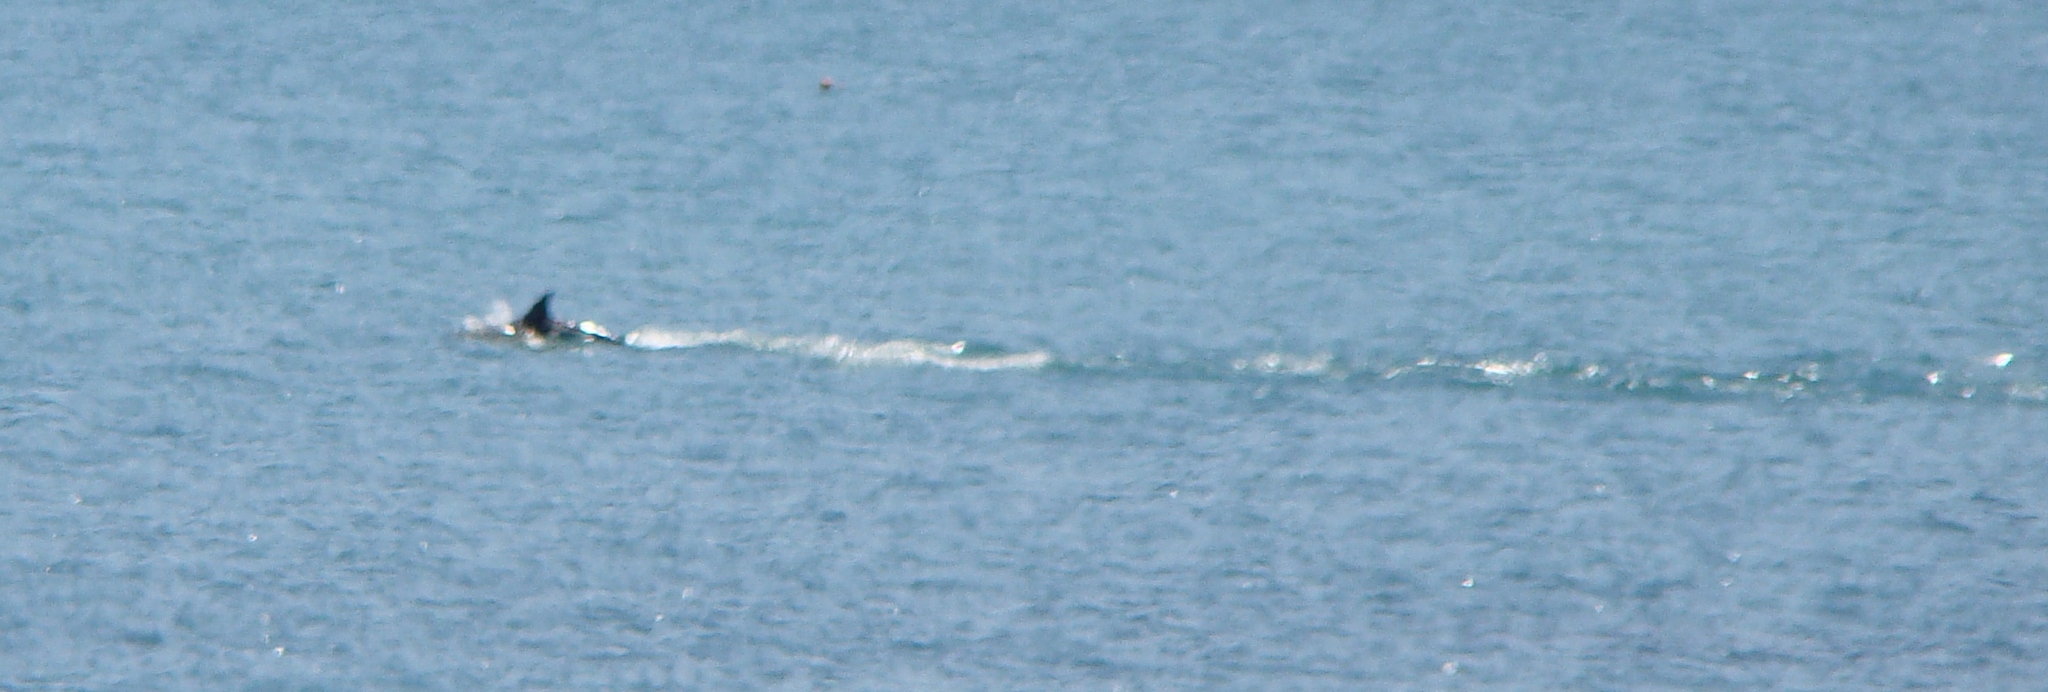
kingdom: Animalia
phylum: Chordata
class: Mammalia
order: Cetacea
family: Delphinidae
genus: Delphinus
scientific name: Delphinus delphis
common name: Common dolphin
